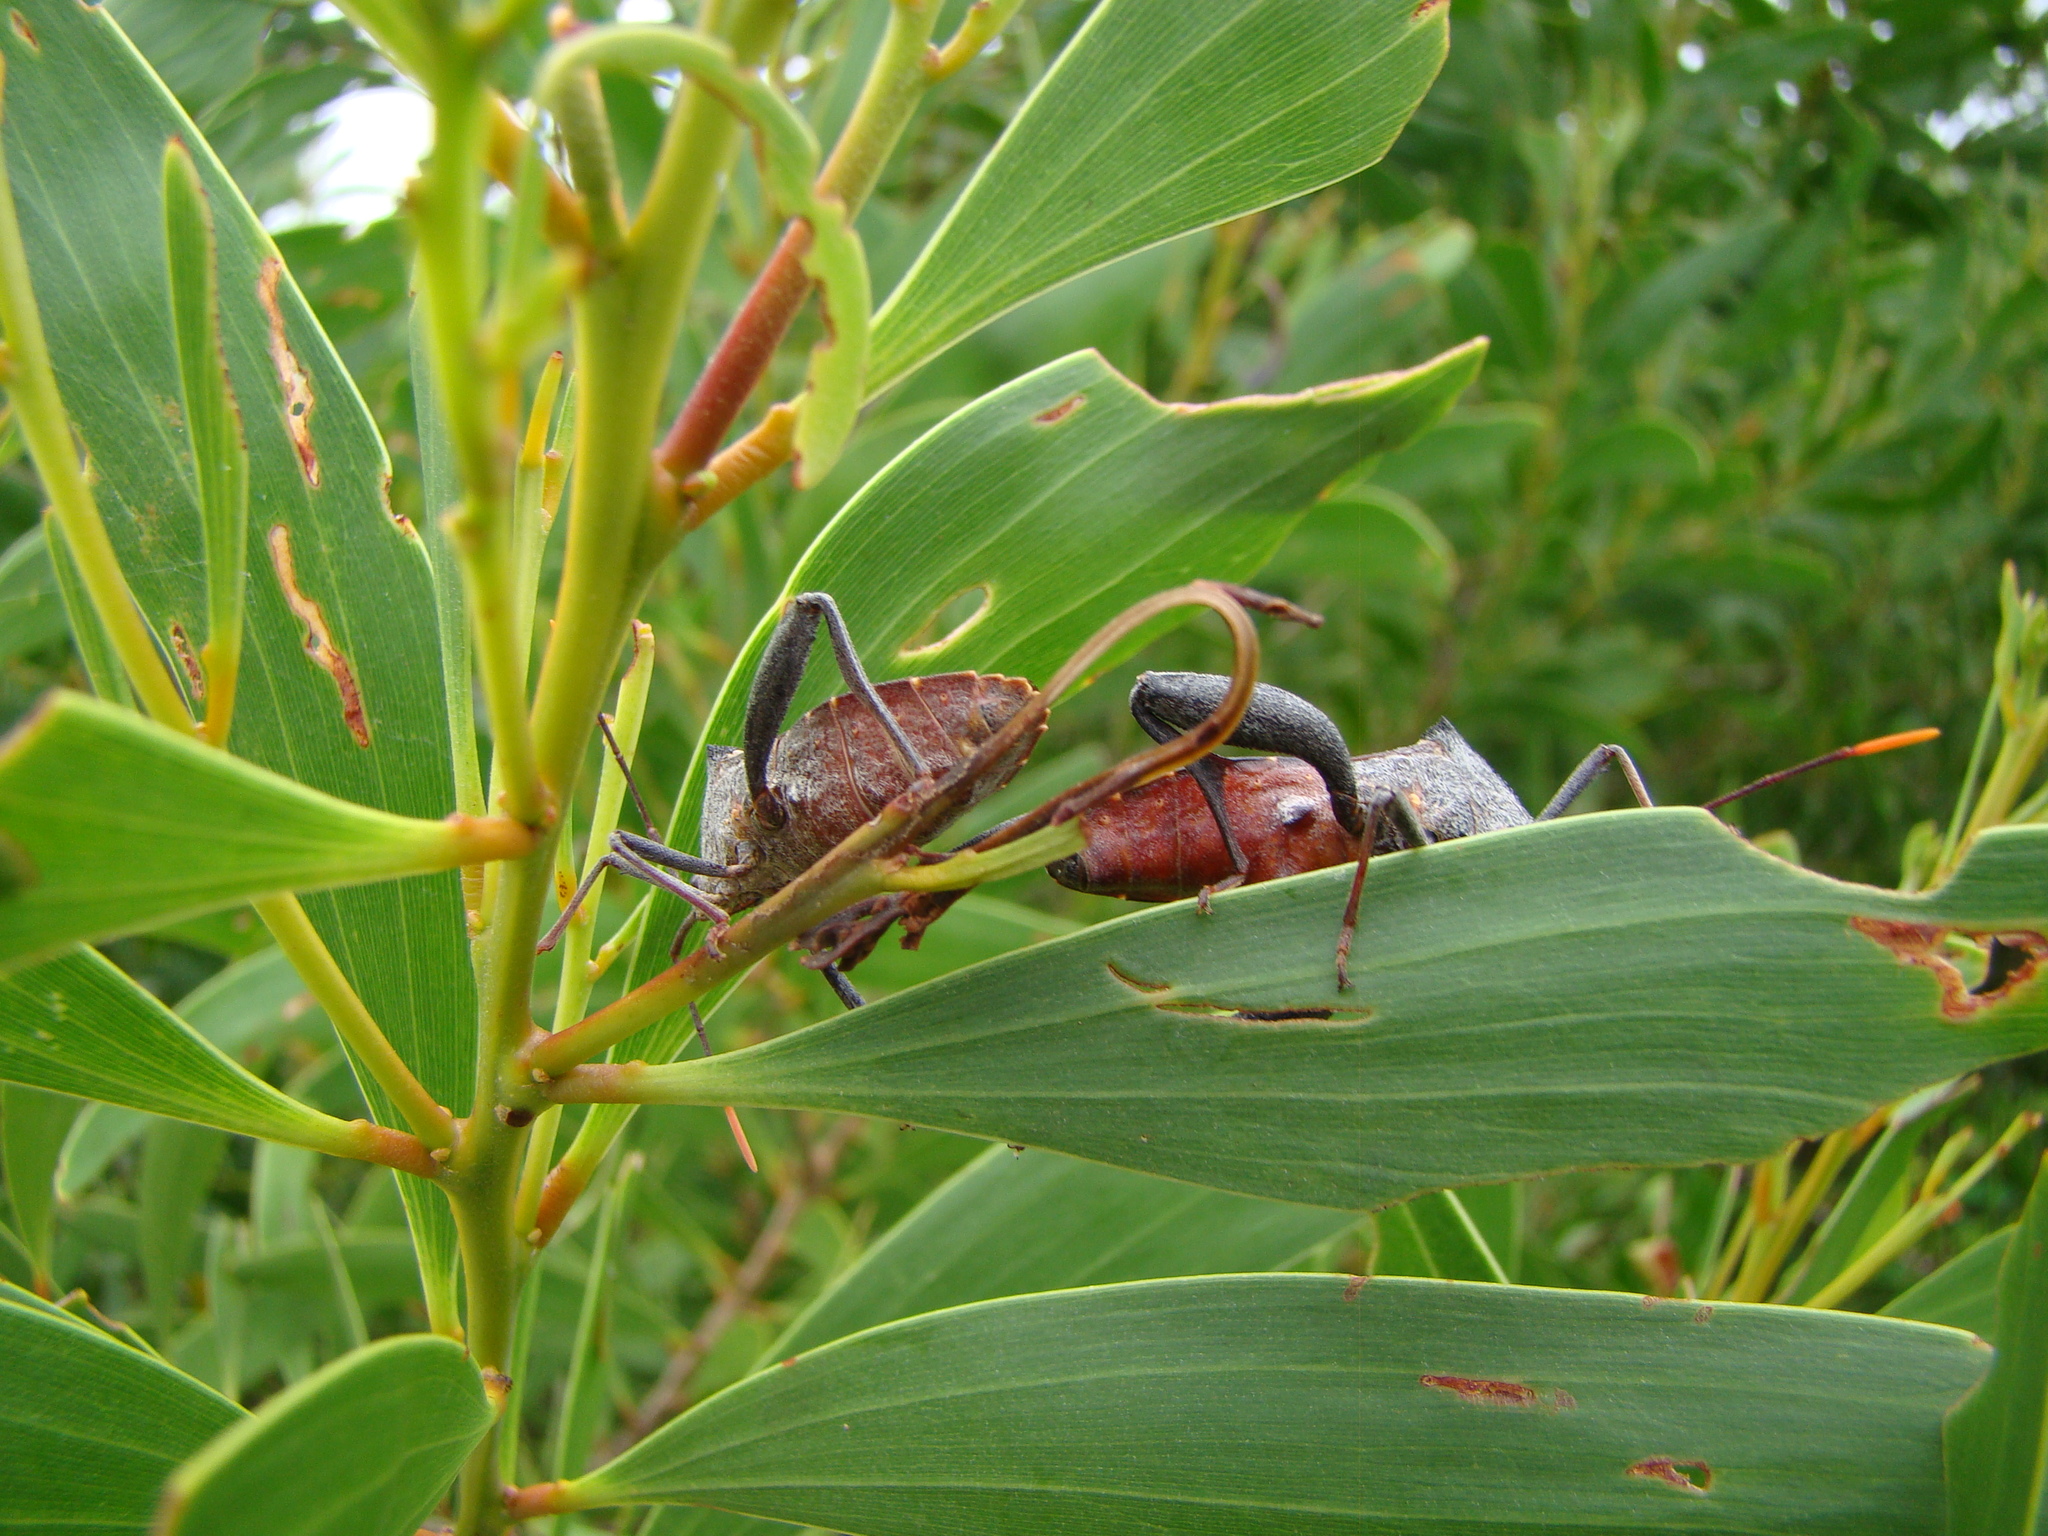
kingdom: Animalia
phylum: Arthropoda
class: Insecta
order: Hemiptera
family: Coreidae
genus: Mictis
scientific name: Mictis profana
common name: Crusader bug
